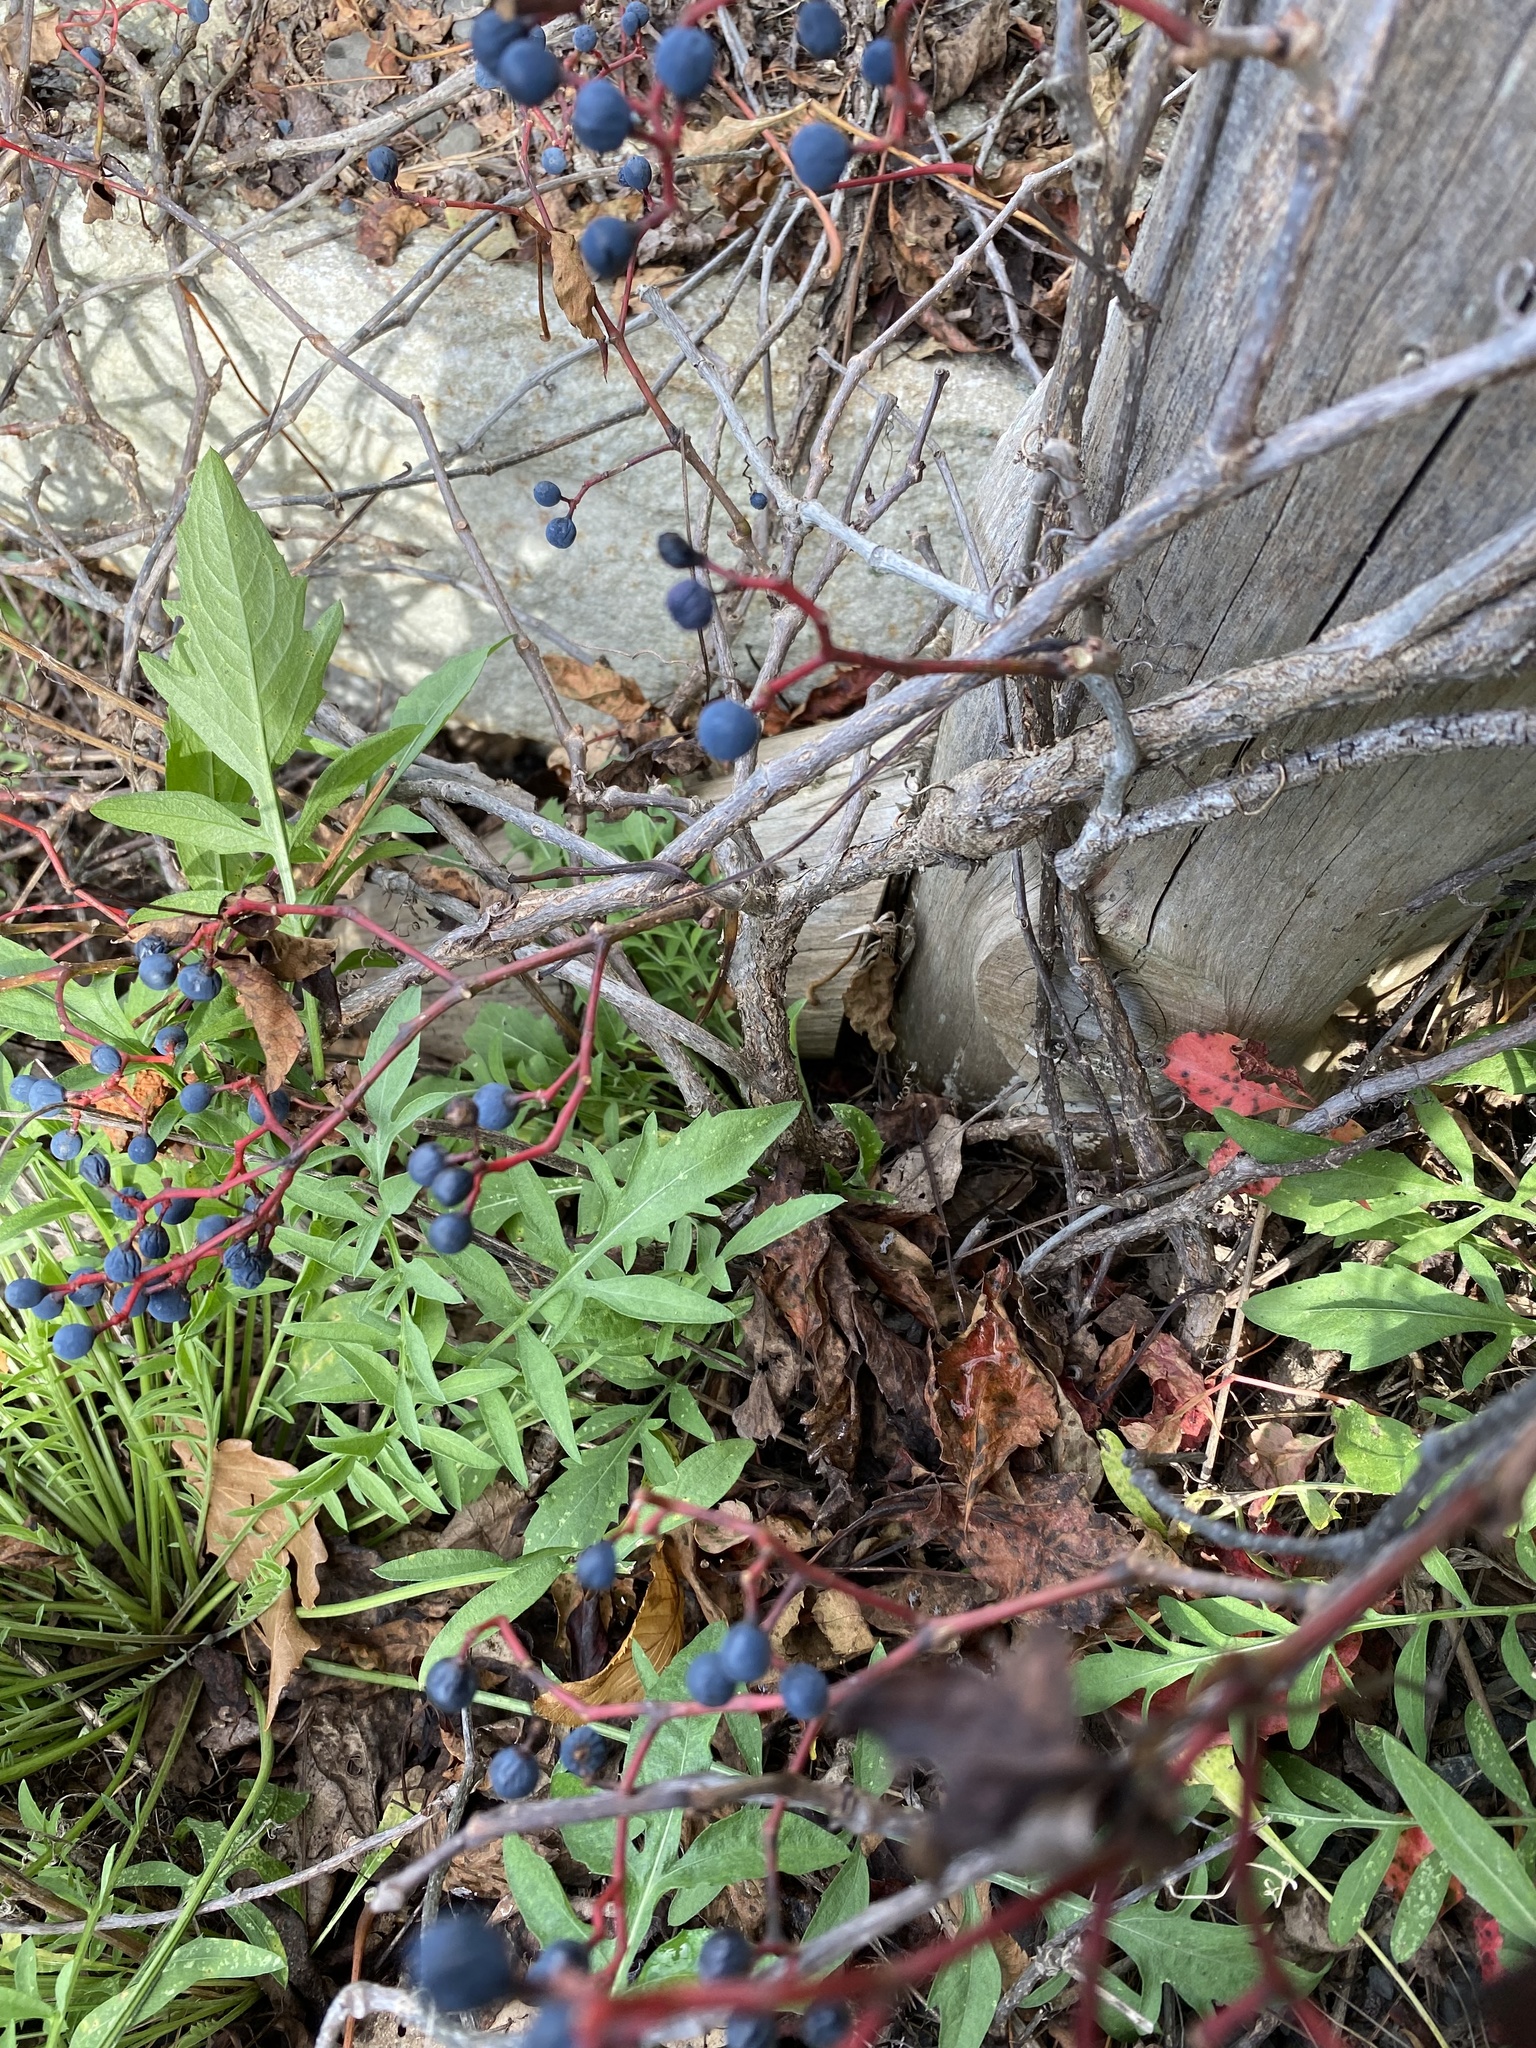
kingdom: Plantae
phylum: Tracheophyta
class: Magnoliopsida
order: Vitales
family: Vitaceae
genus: Parthenocissus
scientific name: Parthenocissus quinquefolia
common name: Virginia-creeper
